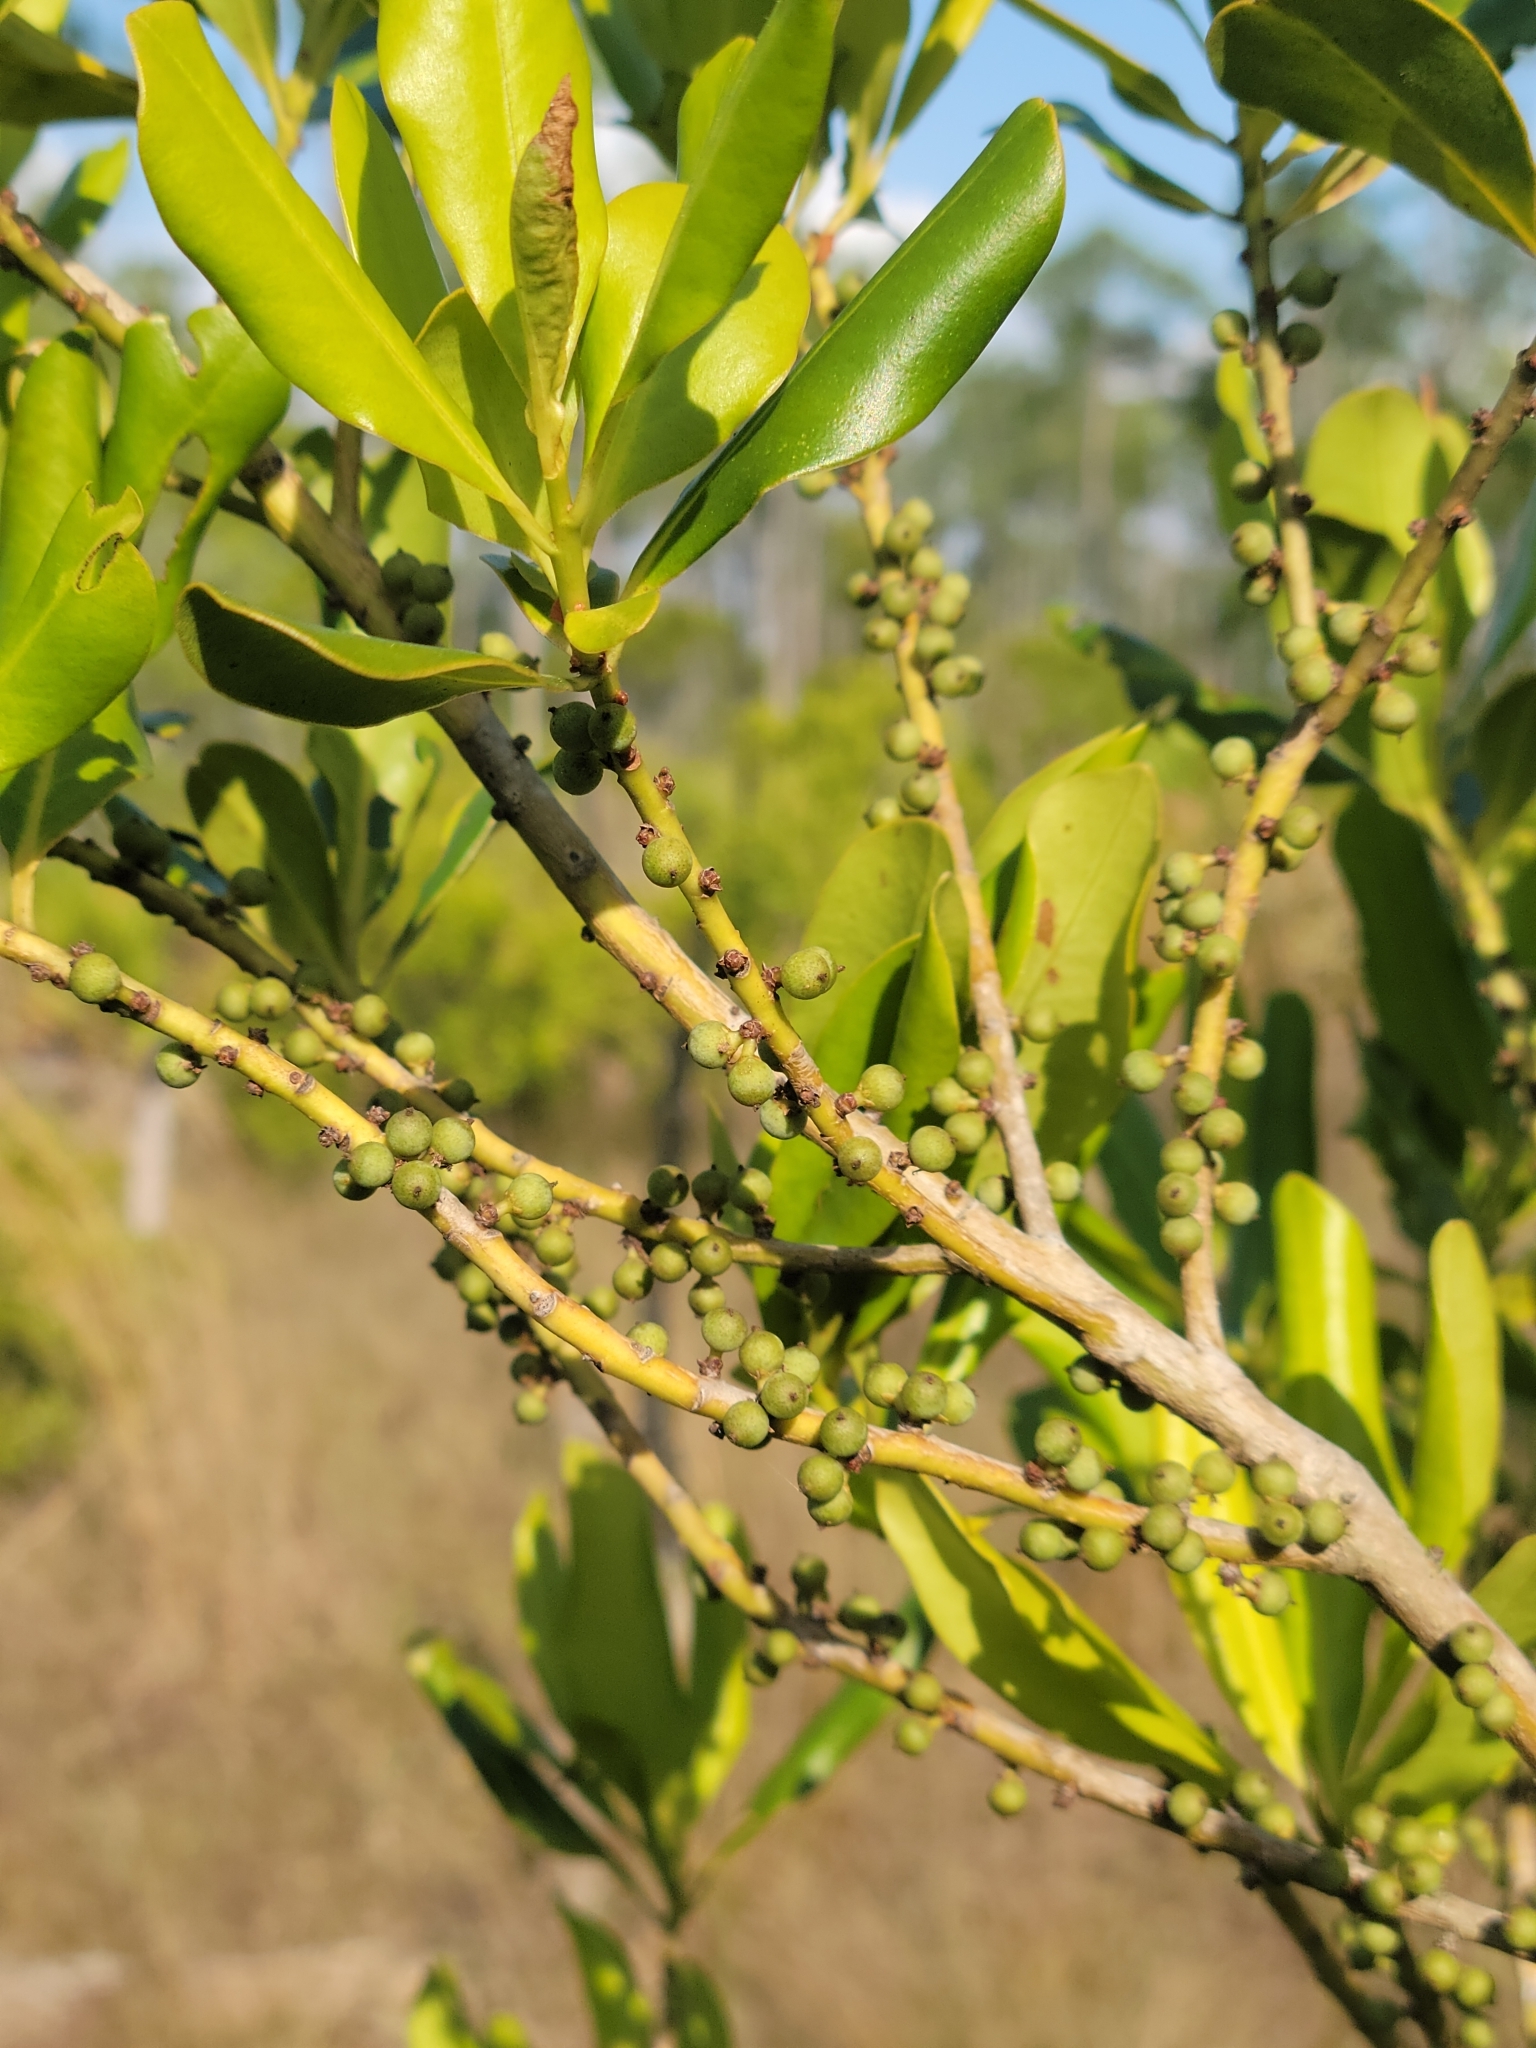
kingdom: Plantae
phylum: Tracheophyta
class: Magnoliopsida
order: Ericales
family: Primulaceae
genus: Myrsine
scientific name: Myrsine floridana
